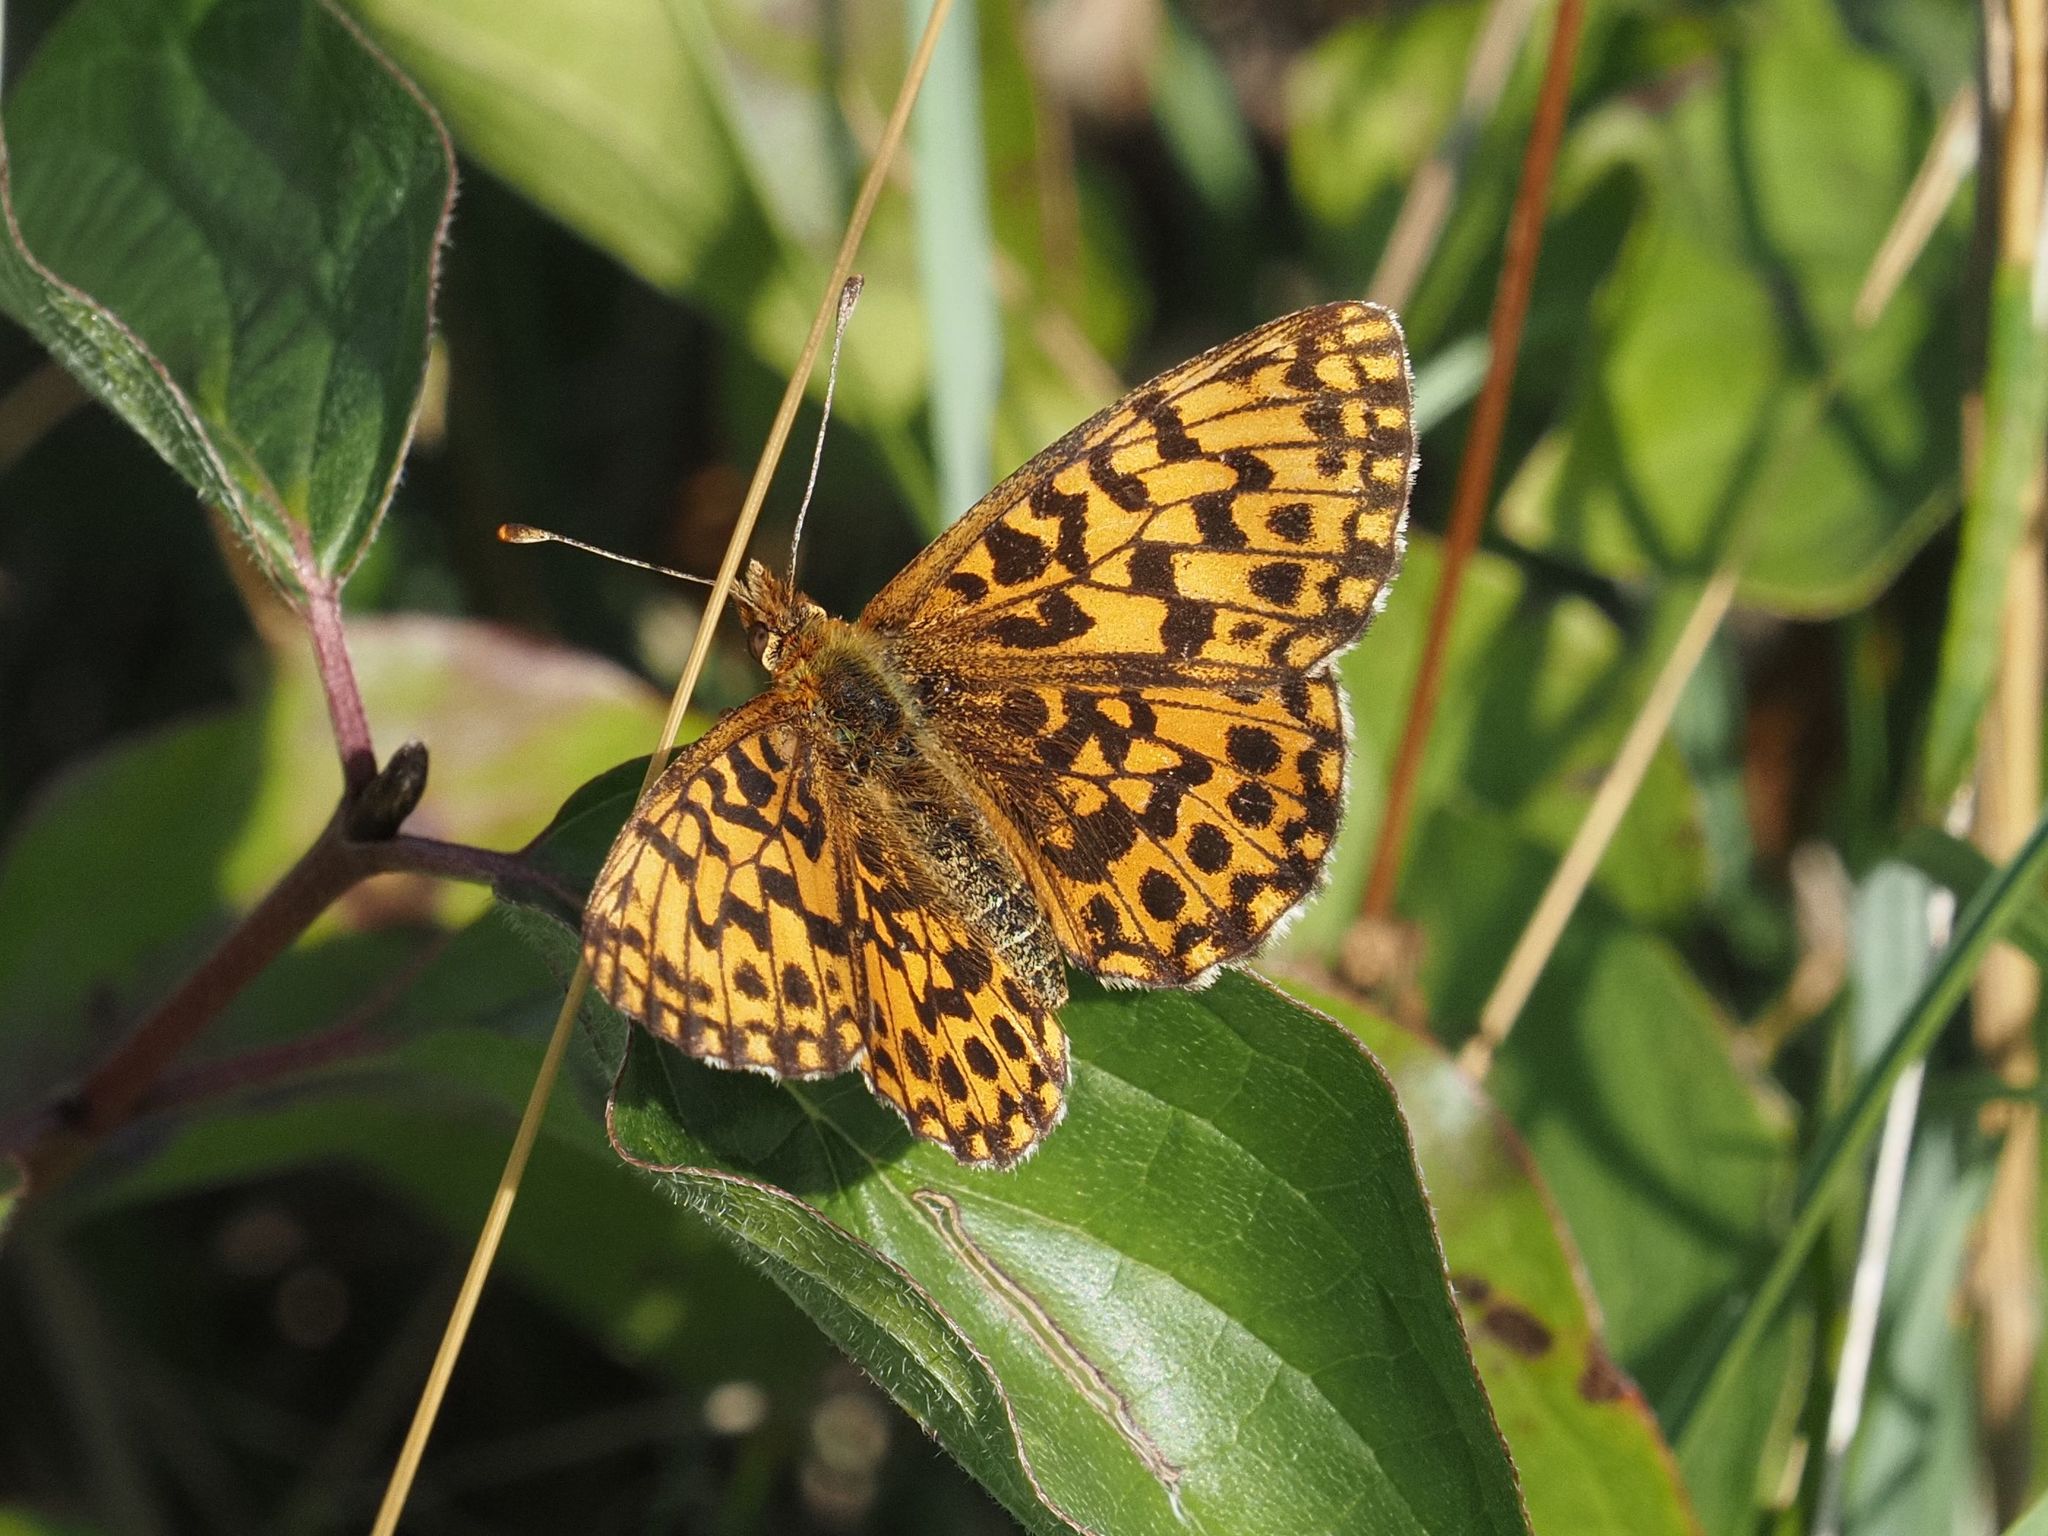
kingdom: Animalia
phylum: Arthropoda
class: Insecta
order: Lepidoptera
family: Nymphalidae
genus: Boloria
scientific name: Boloria dia
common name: Weaver's fritillary
